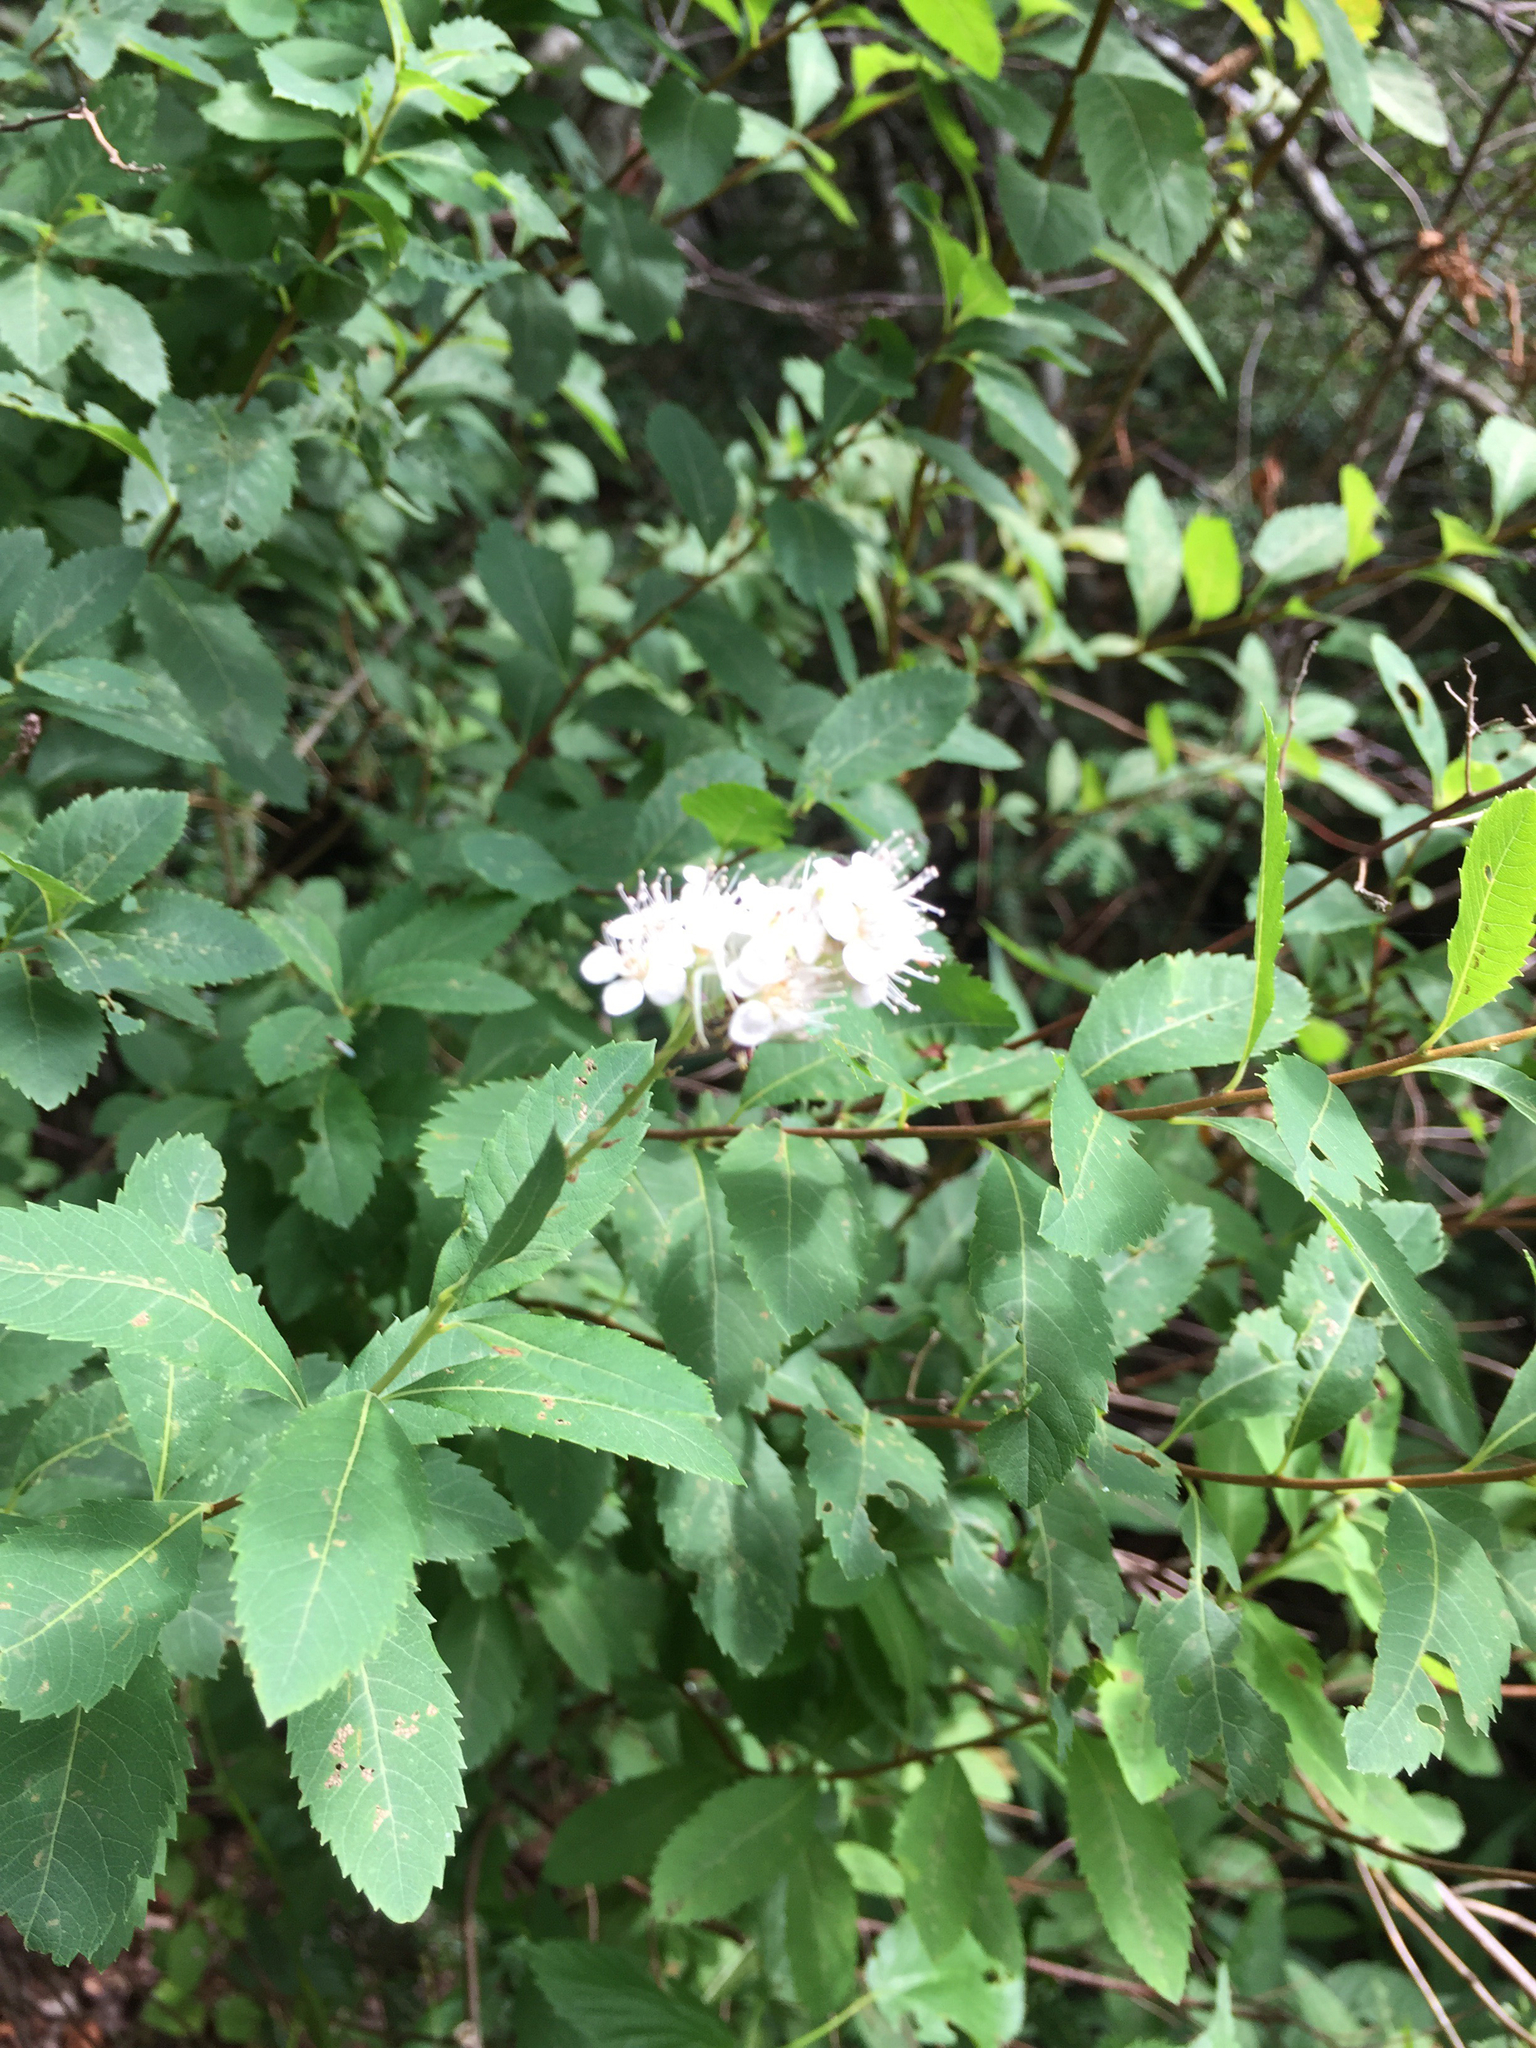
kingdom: Plantae
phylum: Tracheophyta
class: Magnoliopsida
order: Rosales
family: Rosaceae
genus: Spiraea
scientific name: Spiraea alba
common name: Pale bridewort
